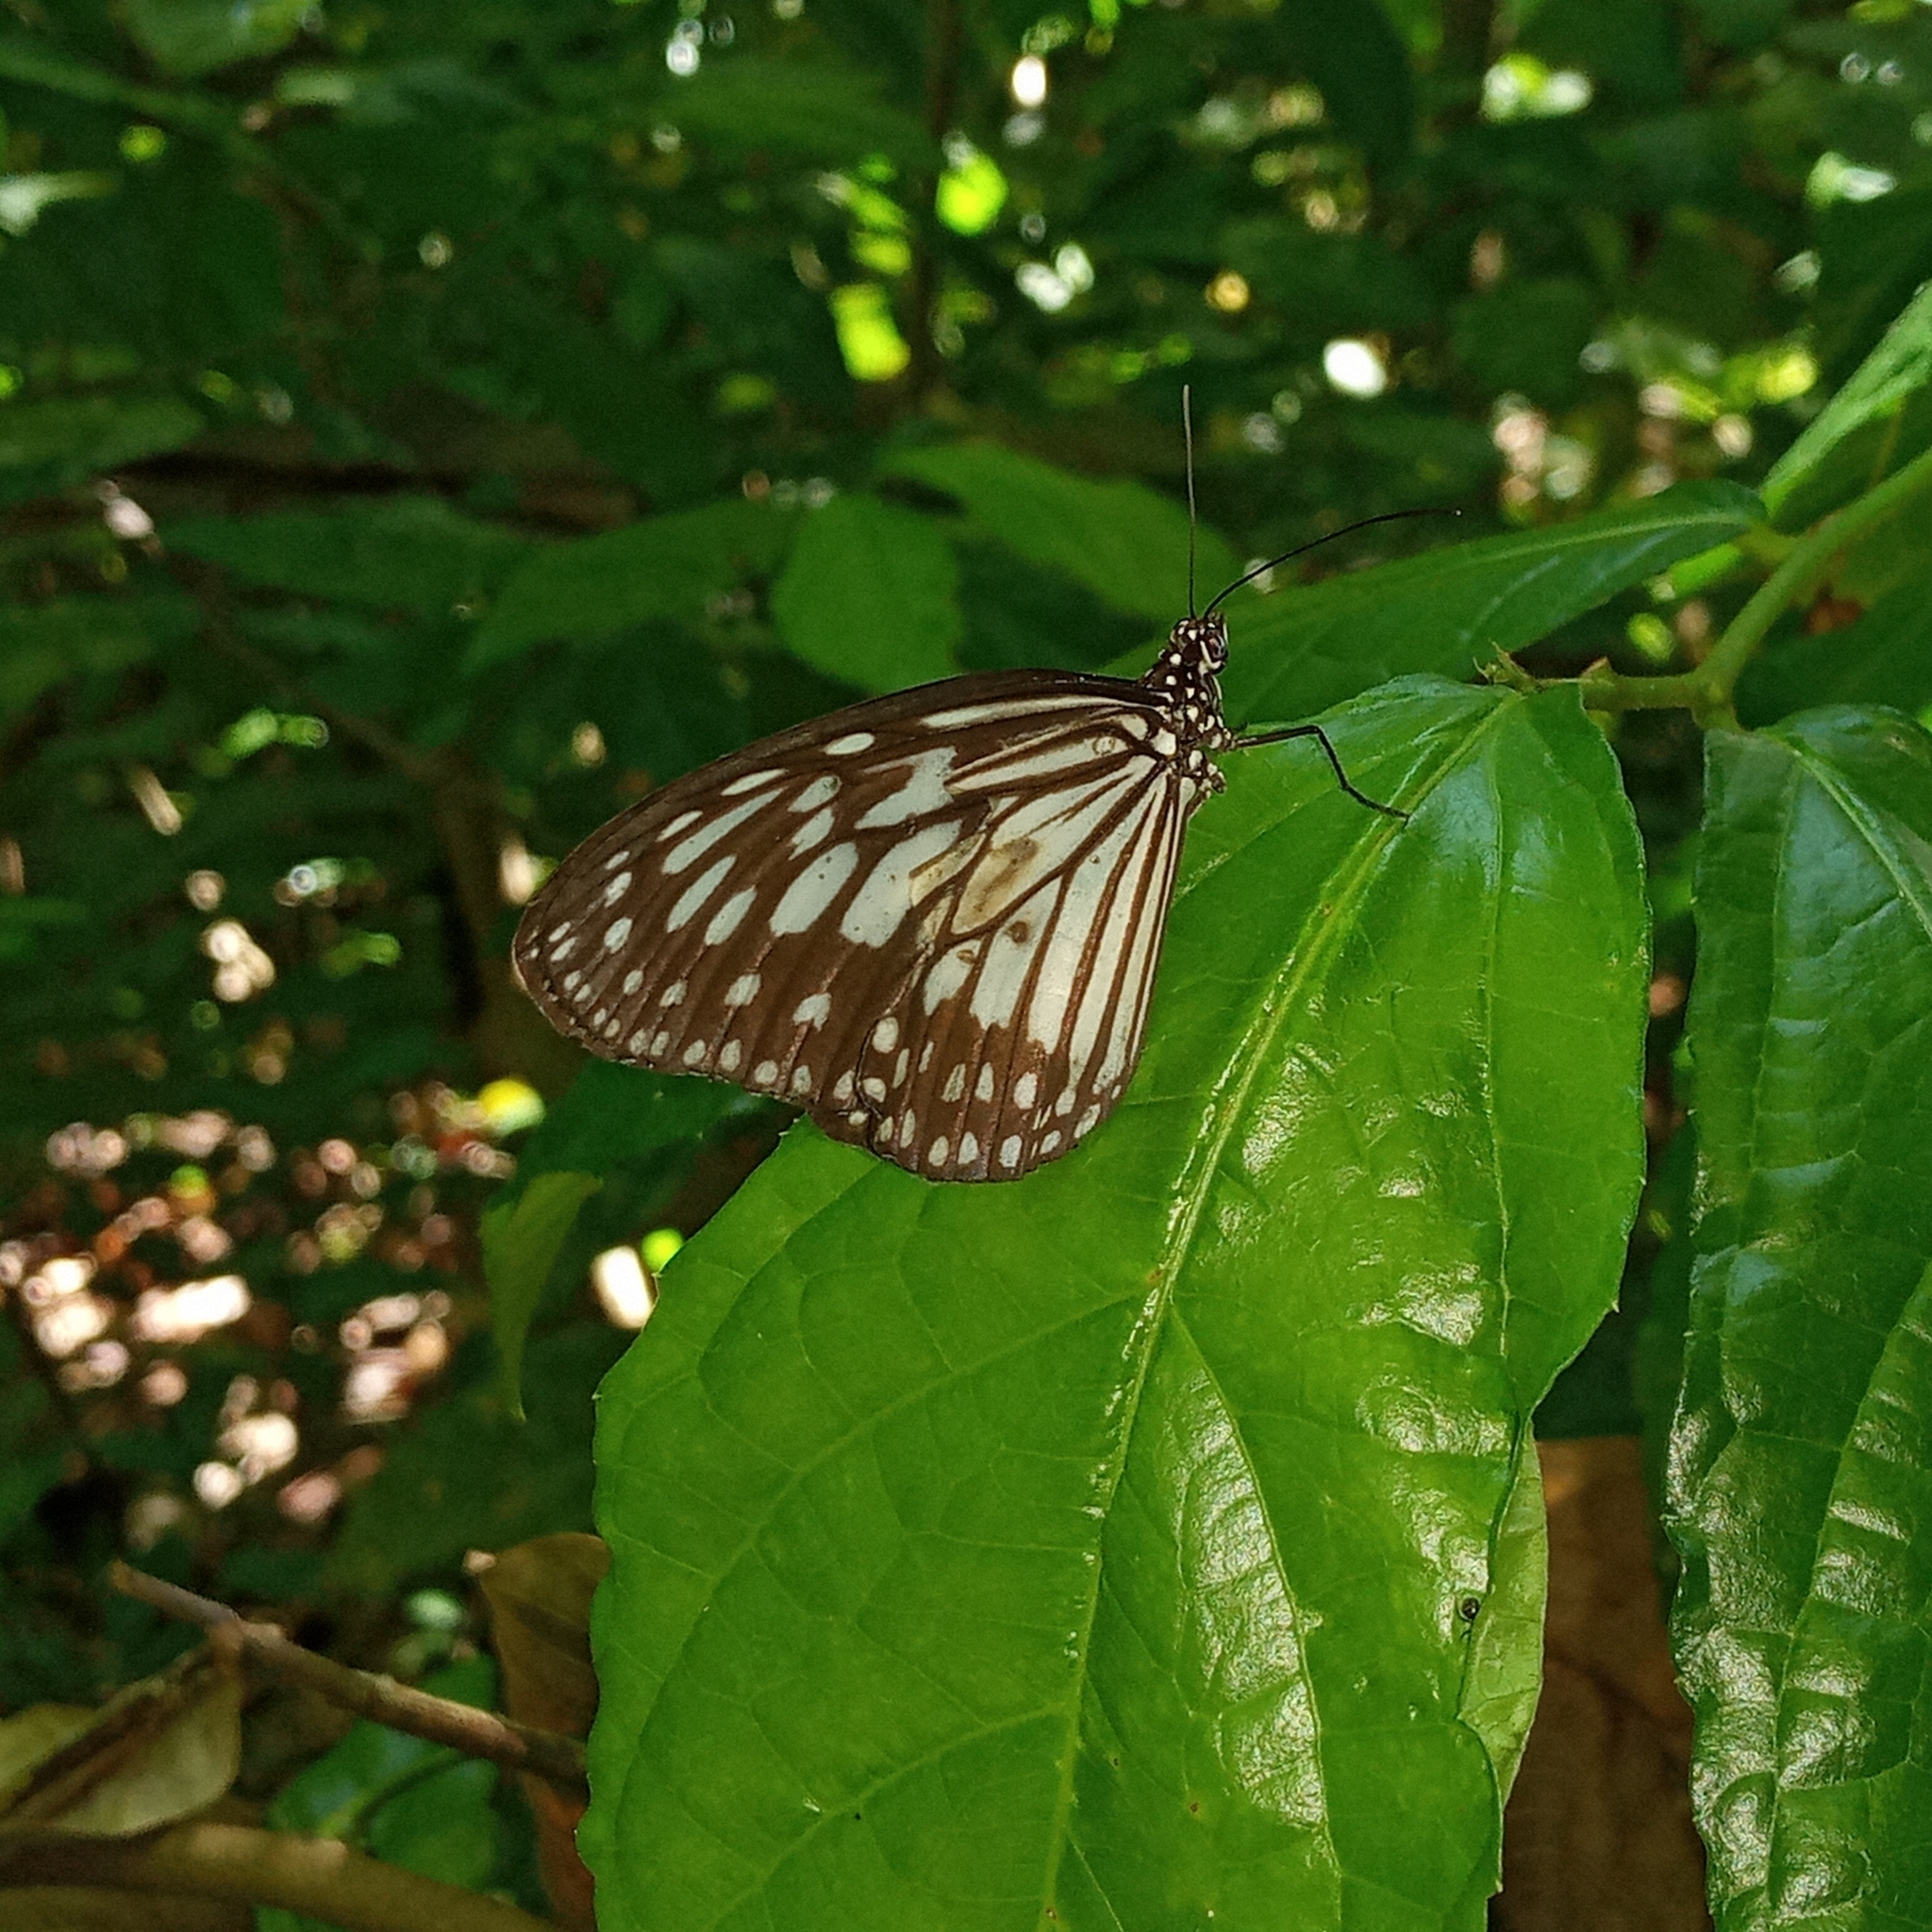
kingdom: Animalia
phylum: Arthropoda
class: Insecta
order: Lepidoptera
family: Nymphalidae
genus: Ideopsis
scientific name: Ideopsis juventa
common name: Grey glassy tiger
